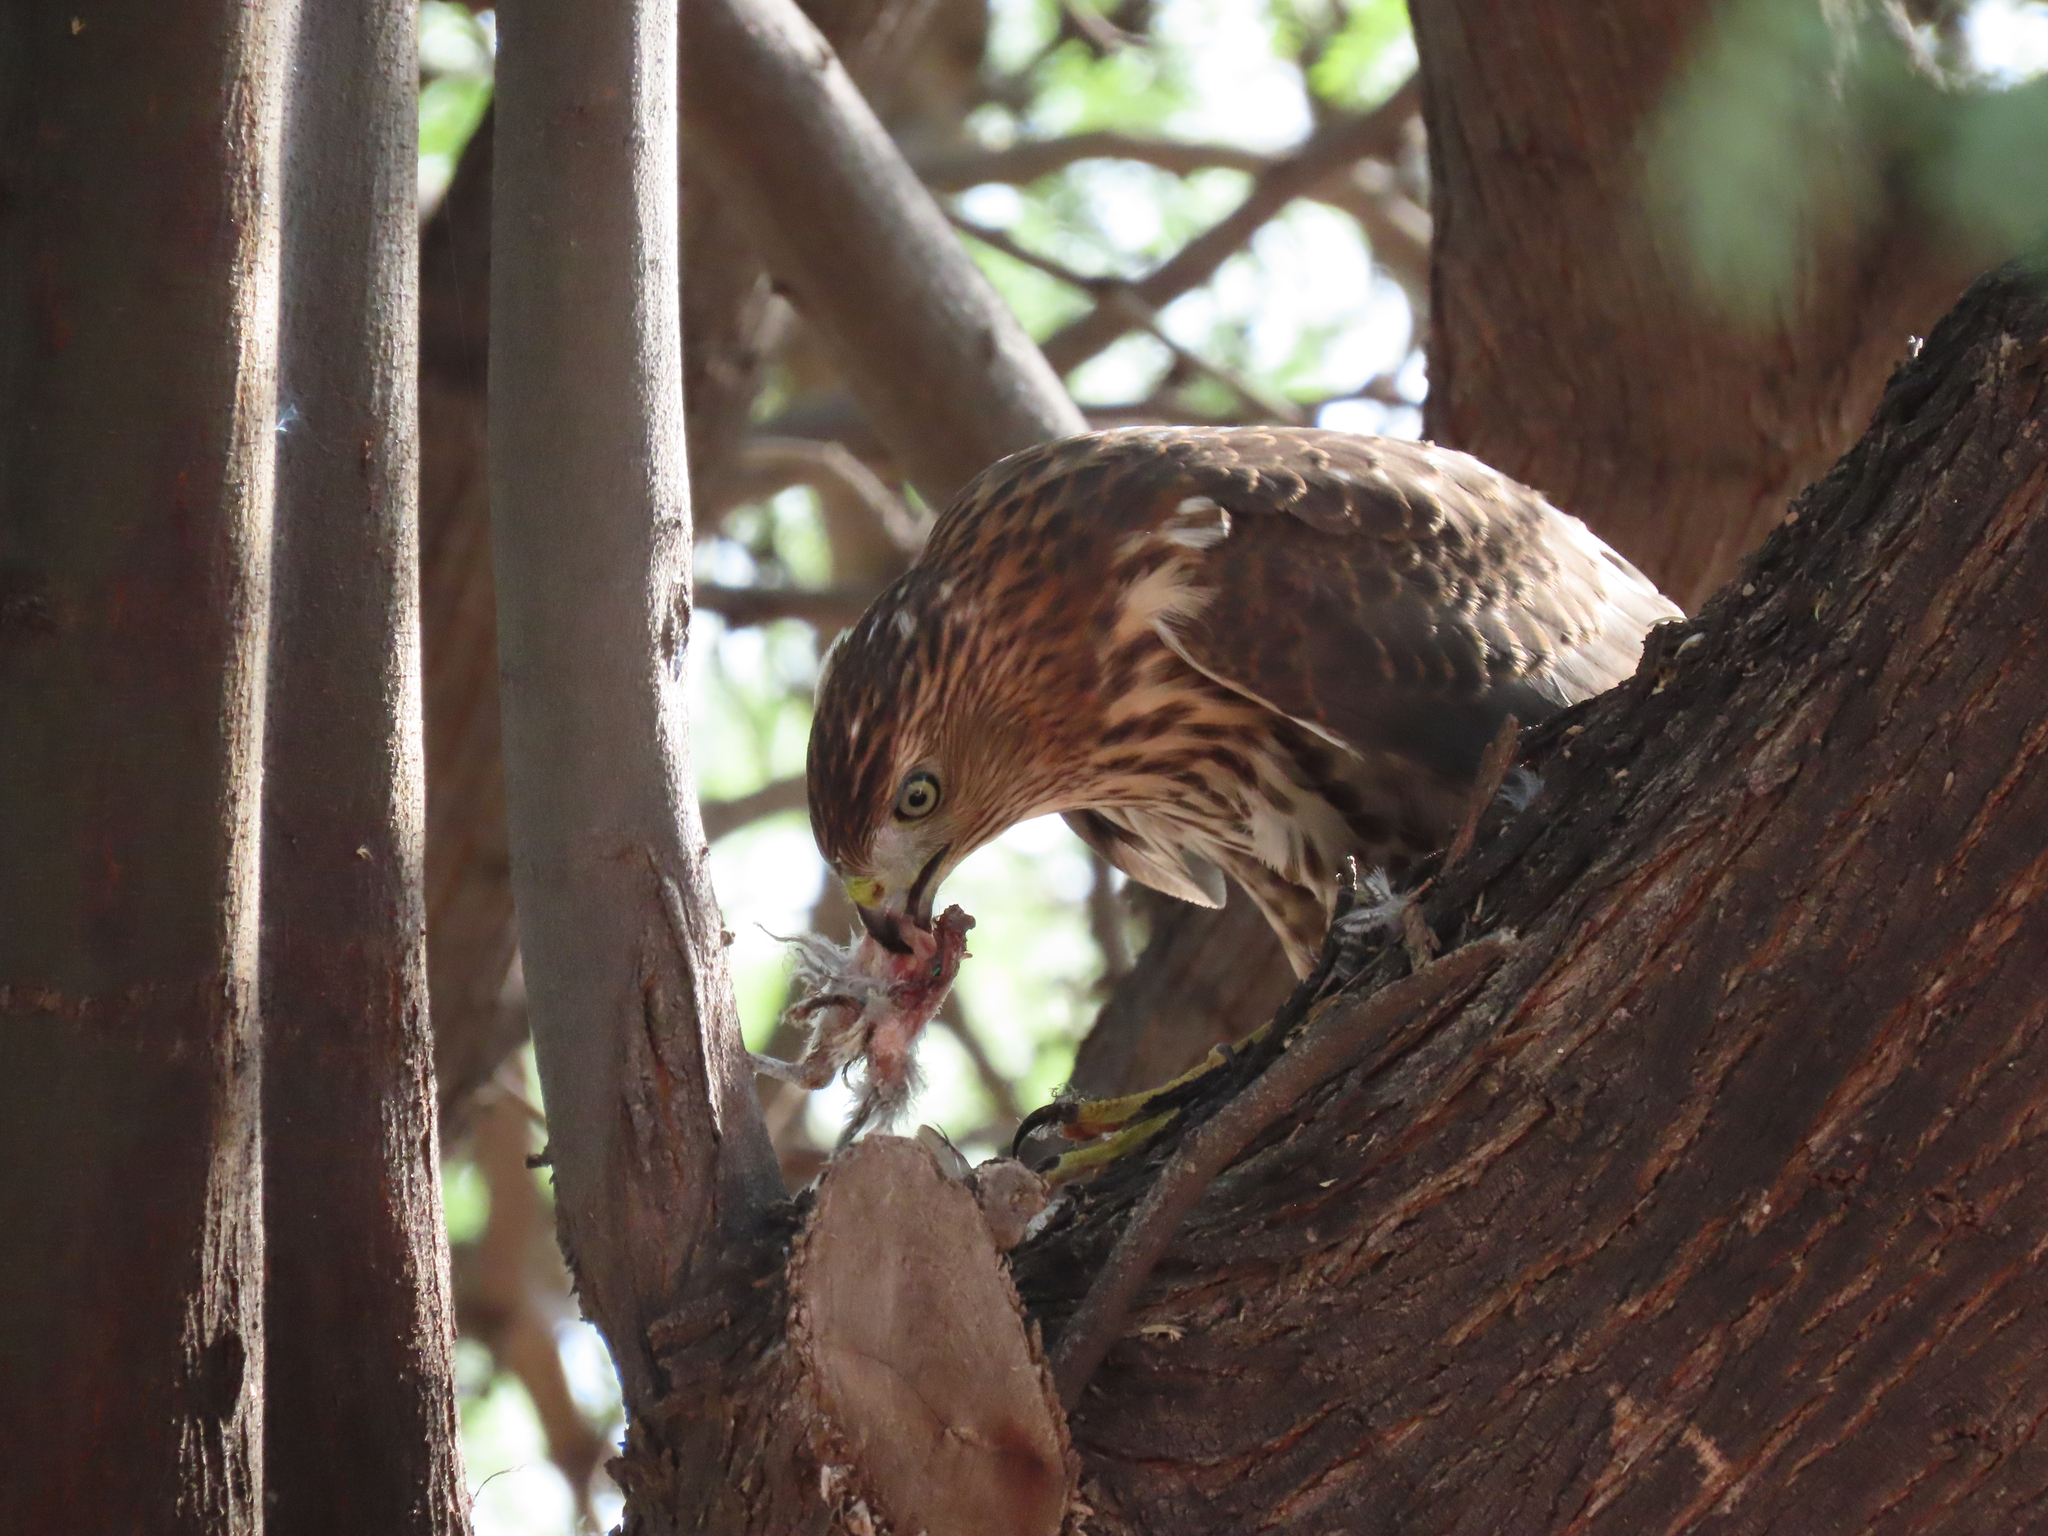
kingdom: Animalia
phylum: Chordata
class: Aves
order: Accipitriformes
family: Accipitridae
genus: Accipiter
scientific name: Accipiter cooperii
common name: Cooper's hawk
